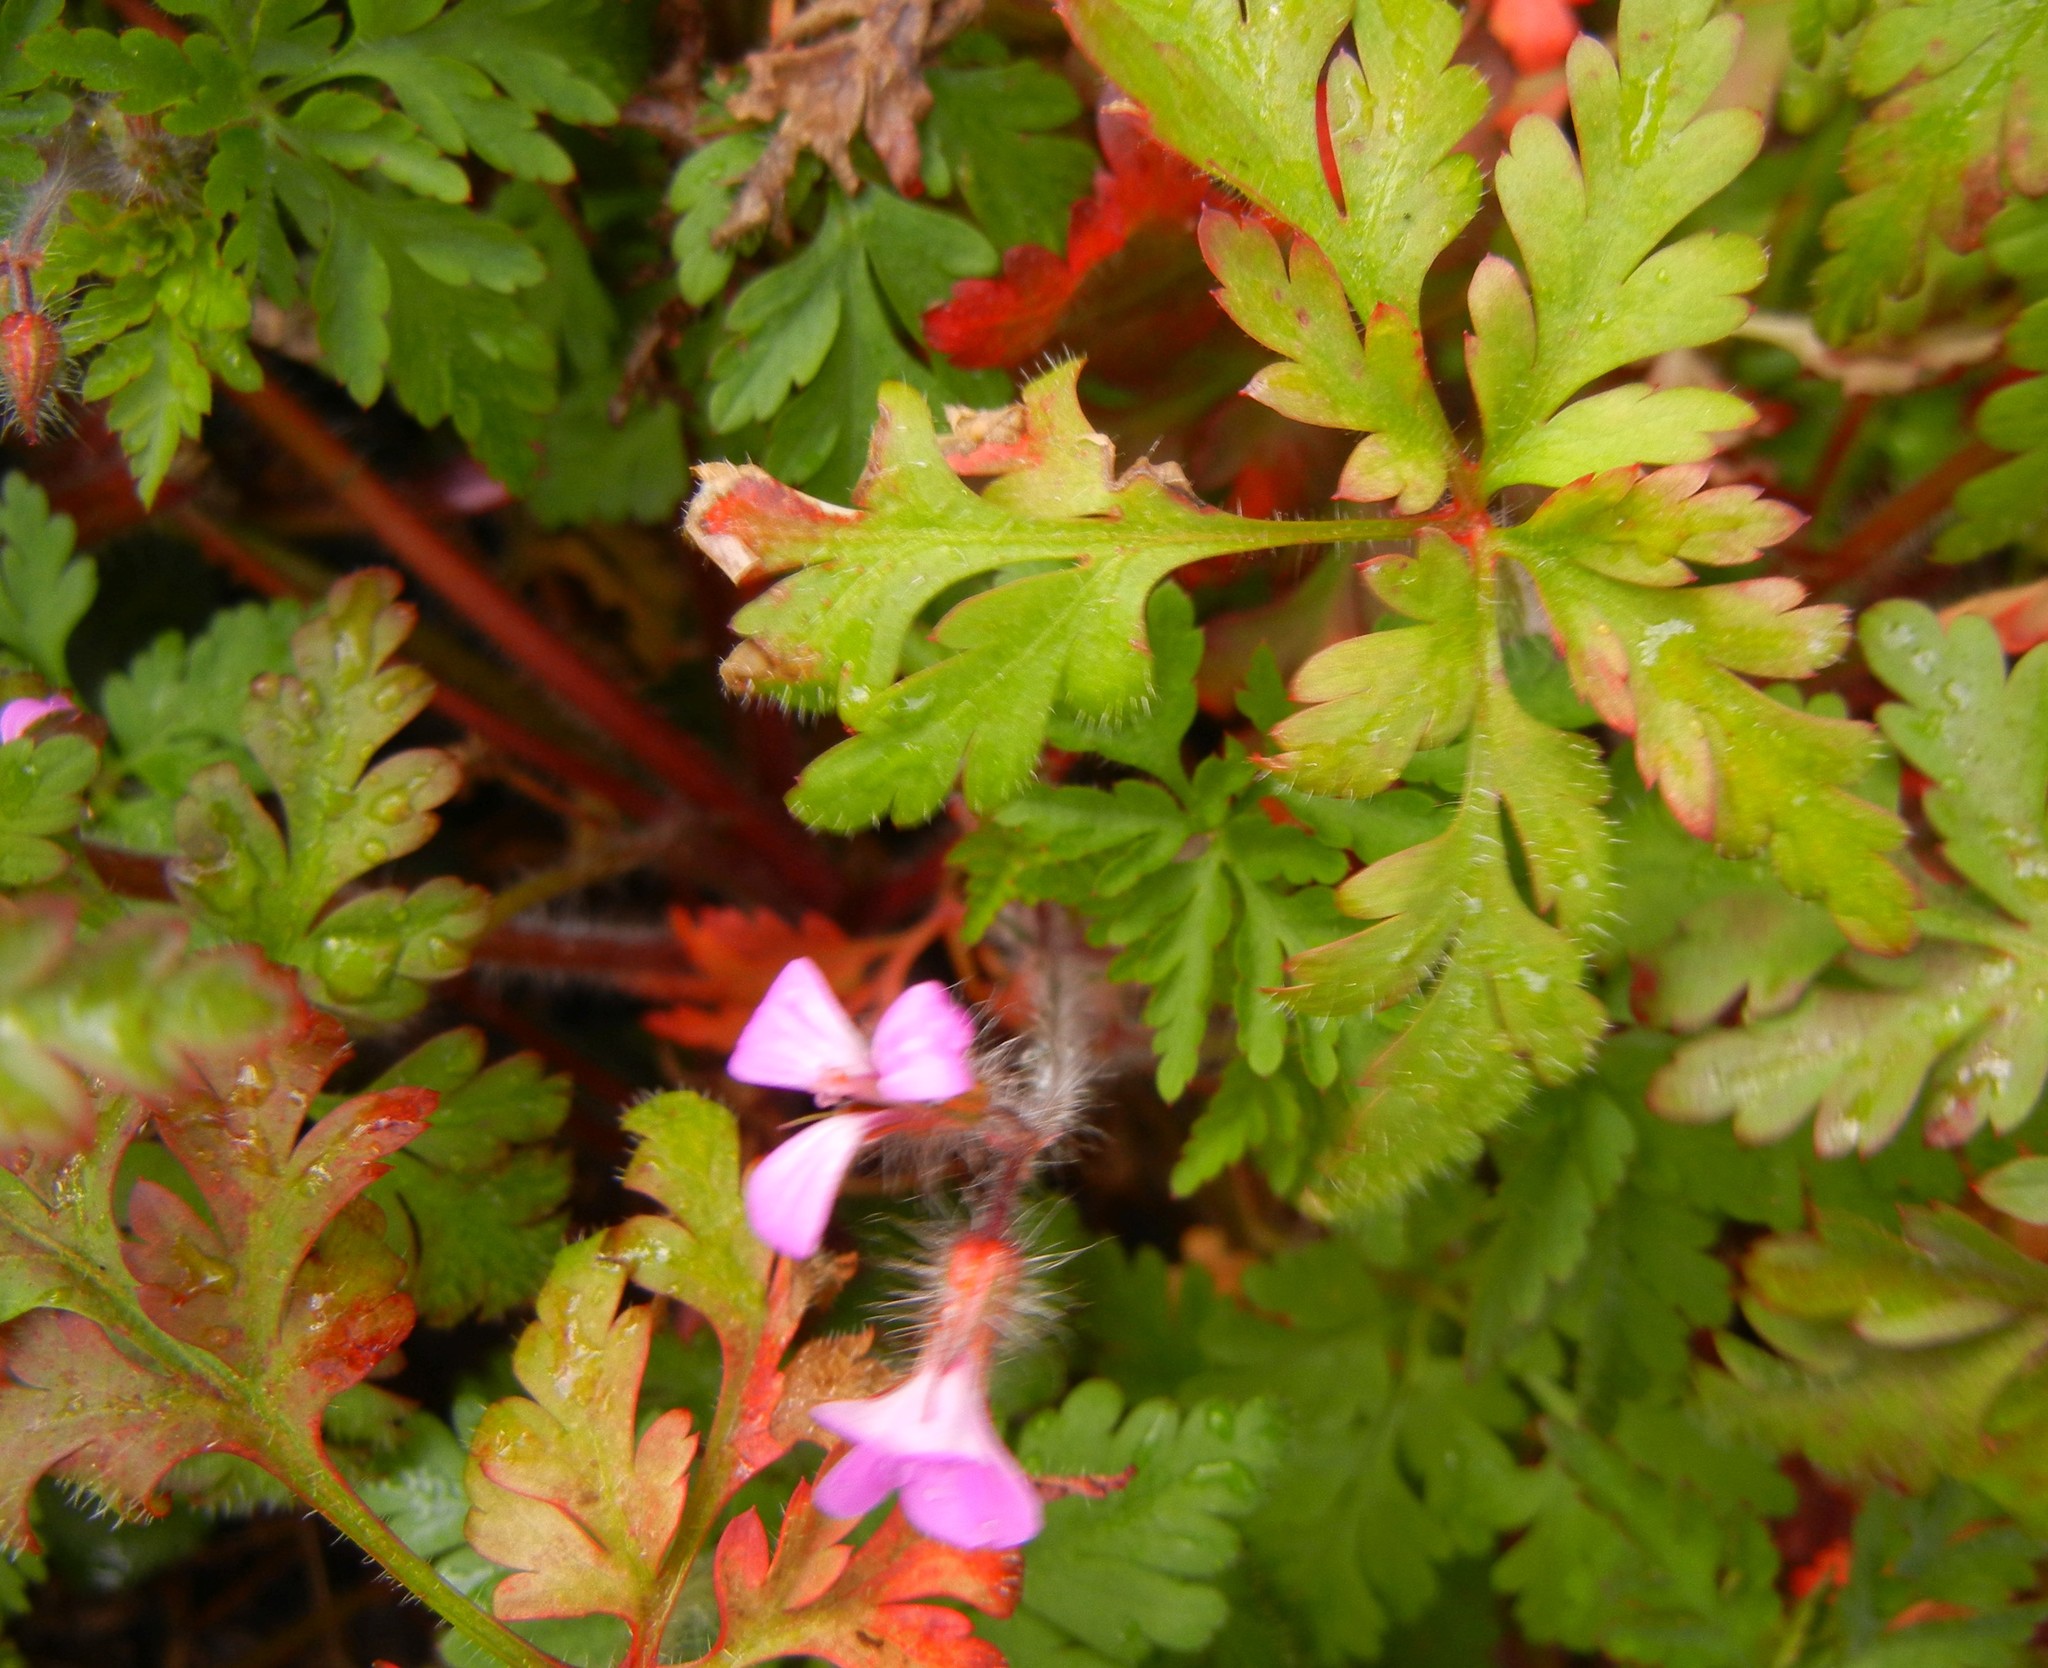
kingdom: Plantae
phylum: Tracheophyta
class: Magnoliopsida
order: Geraniales
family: Geraniaceae
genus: Geranium
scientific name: Geranium robertianum
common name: Herb-robert
